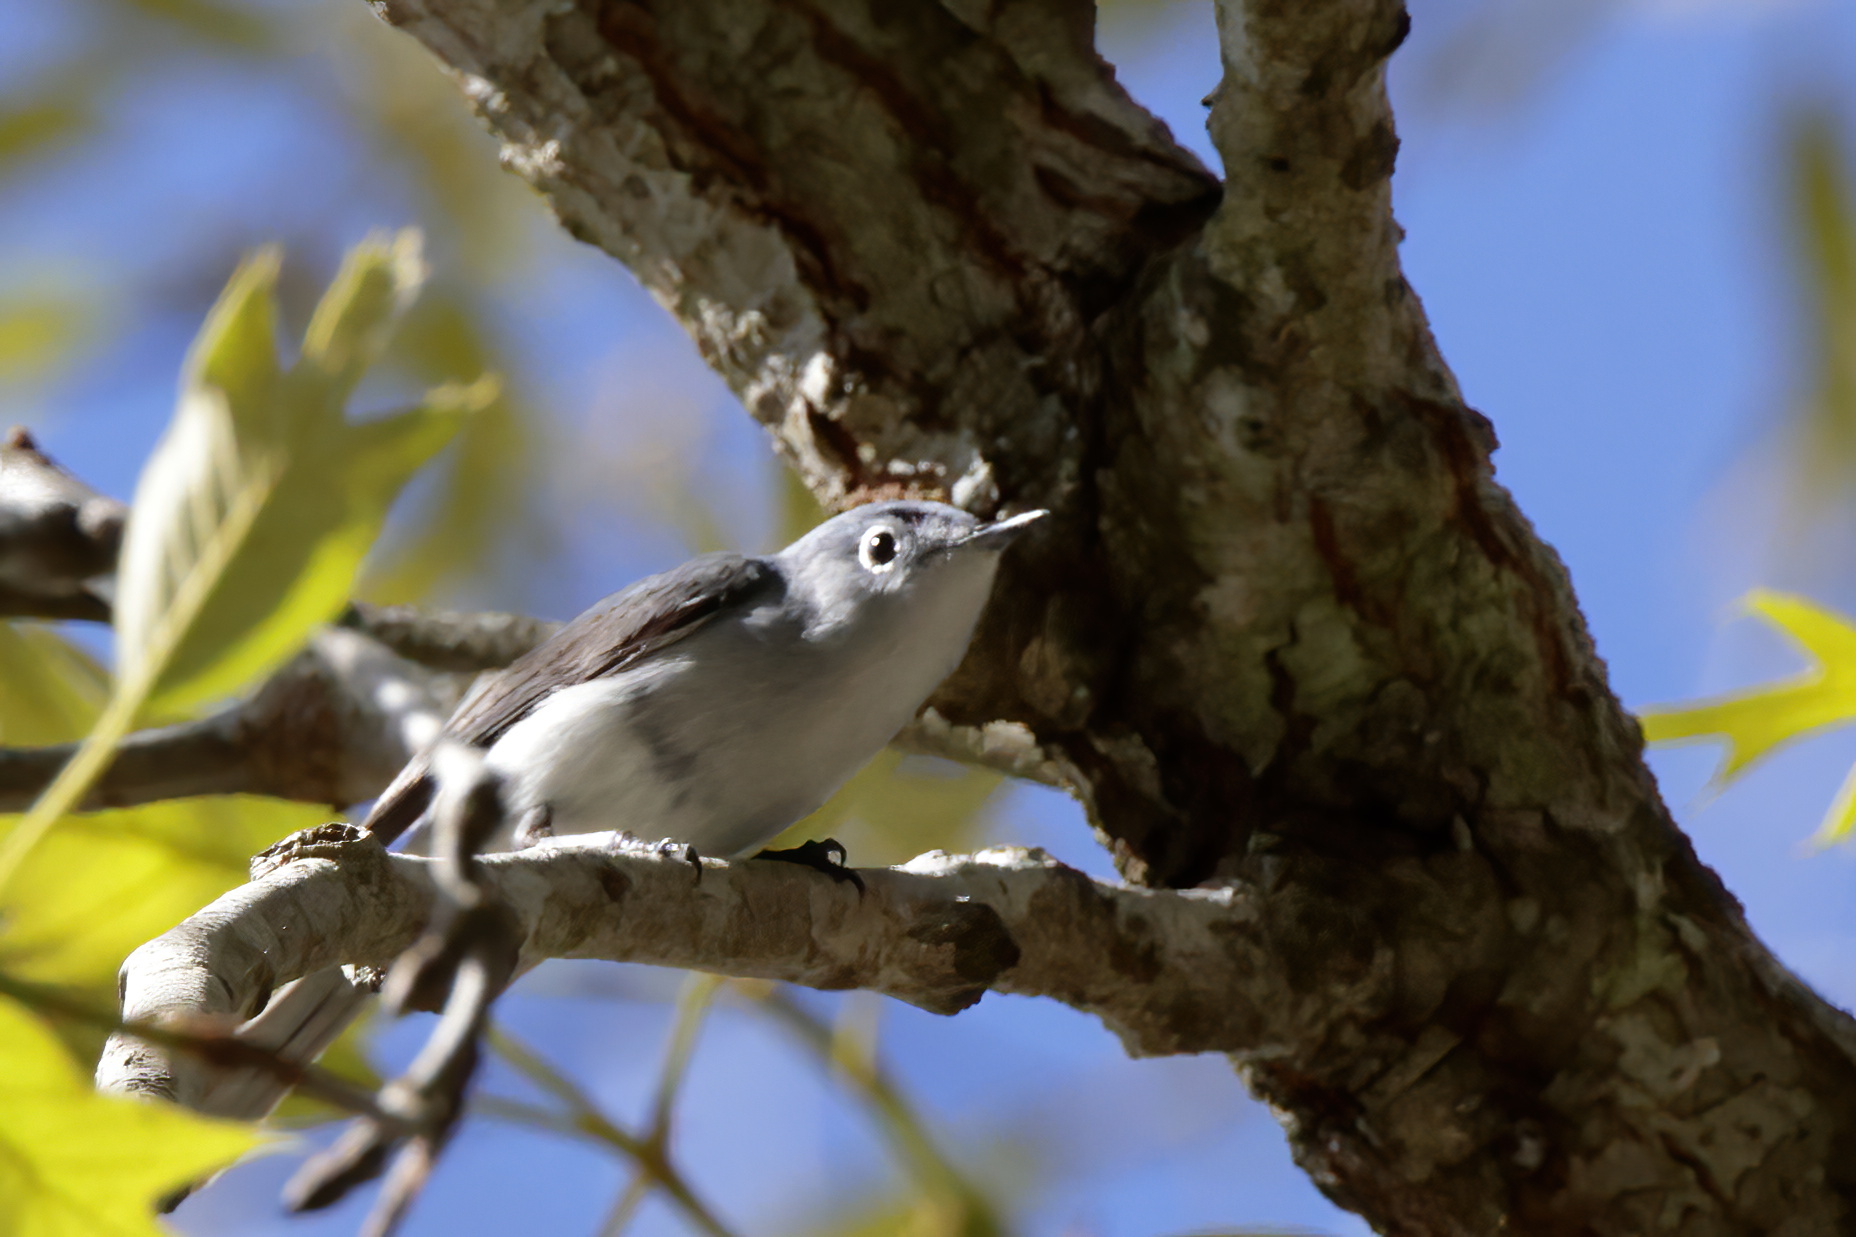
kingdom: Animalia
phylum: Chordata
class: Aves
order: Passeriformes
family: Polioptilidae
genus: Polioptila
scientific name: Polioptila caerulea
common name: Blue-gray gnatcatcher
